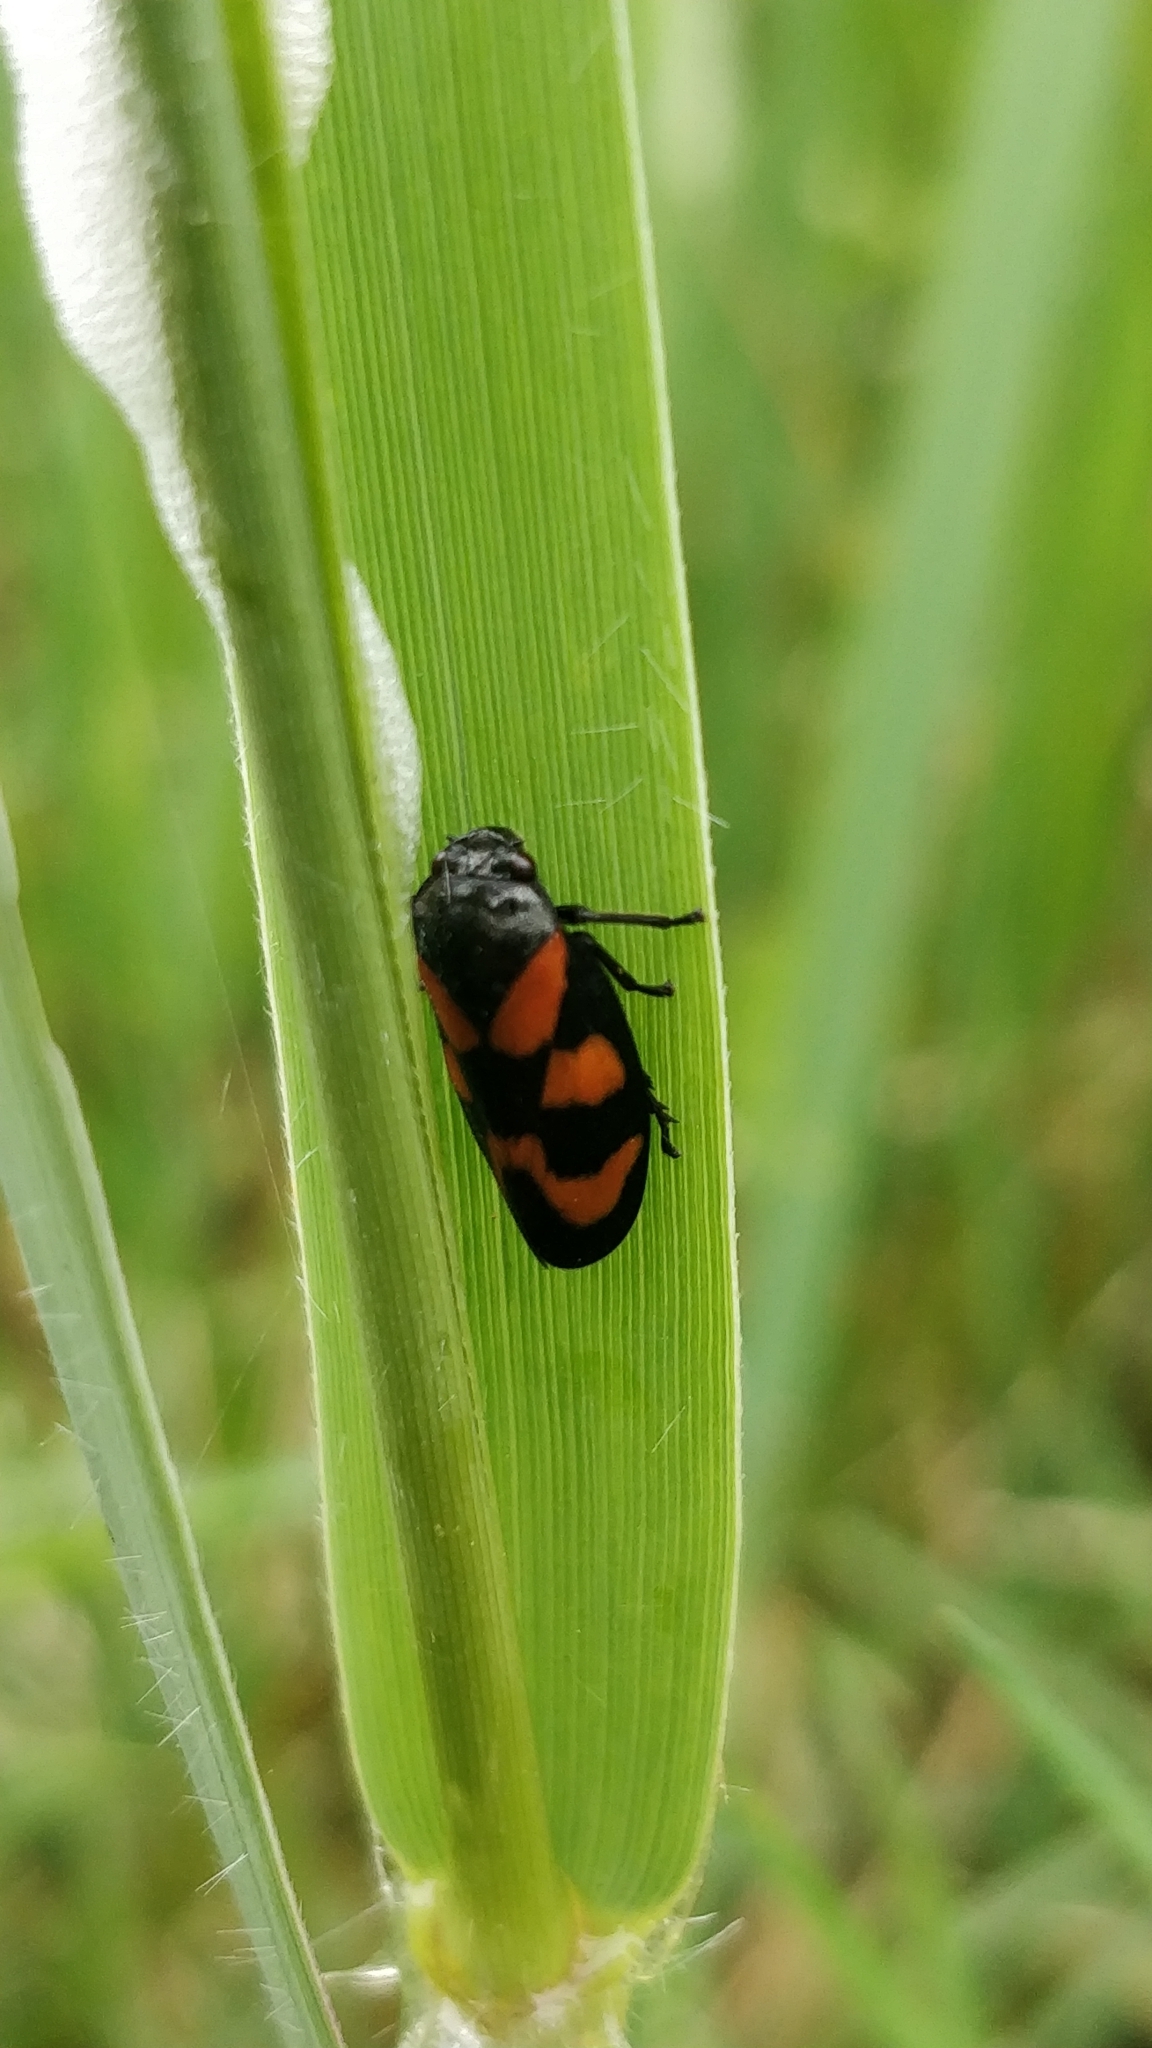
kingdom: Animalia
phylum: Arthropoda
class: Insecta
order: Hemiptera
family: Cercopidae
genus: Cercopis
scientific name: Cercopis vulnerata
